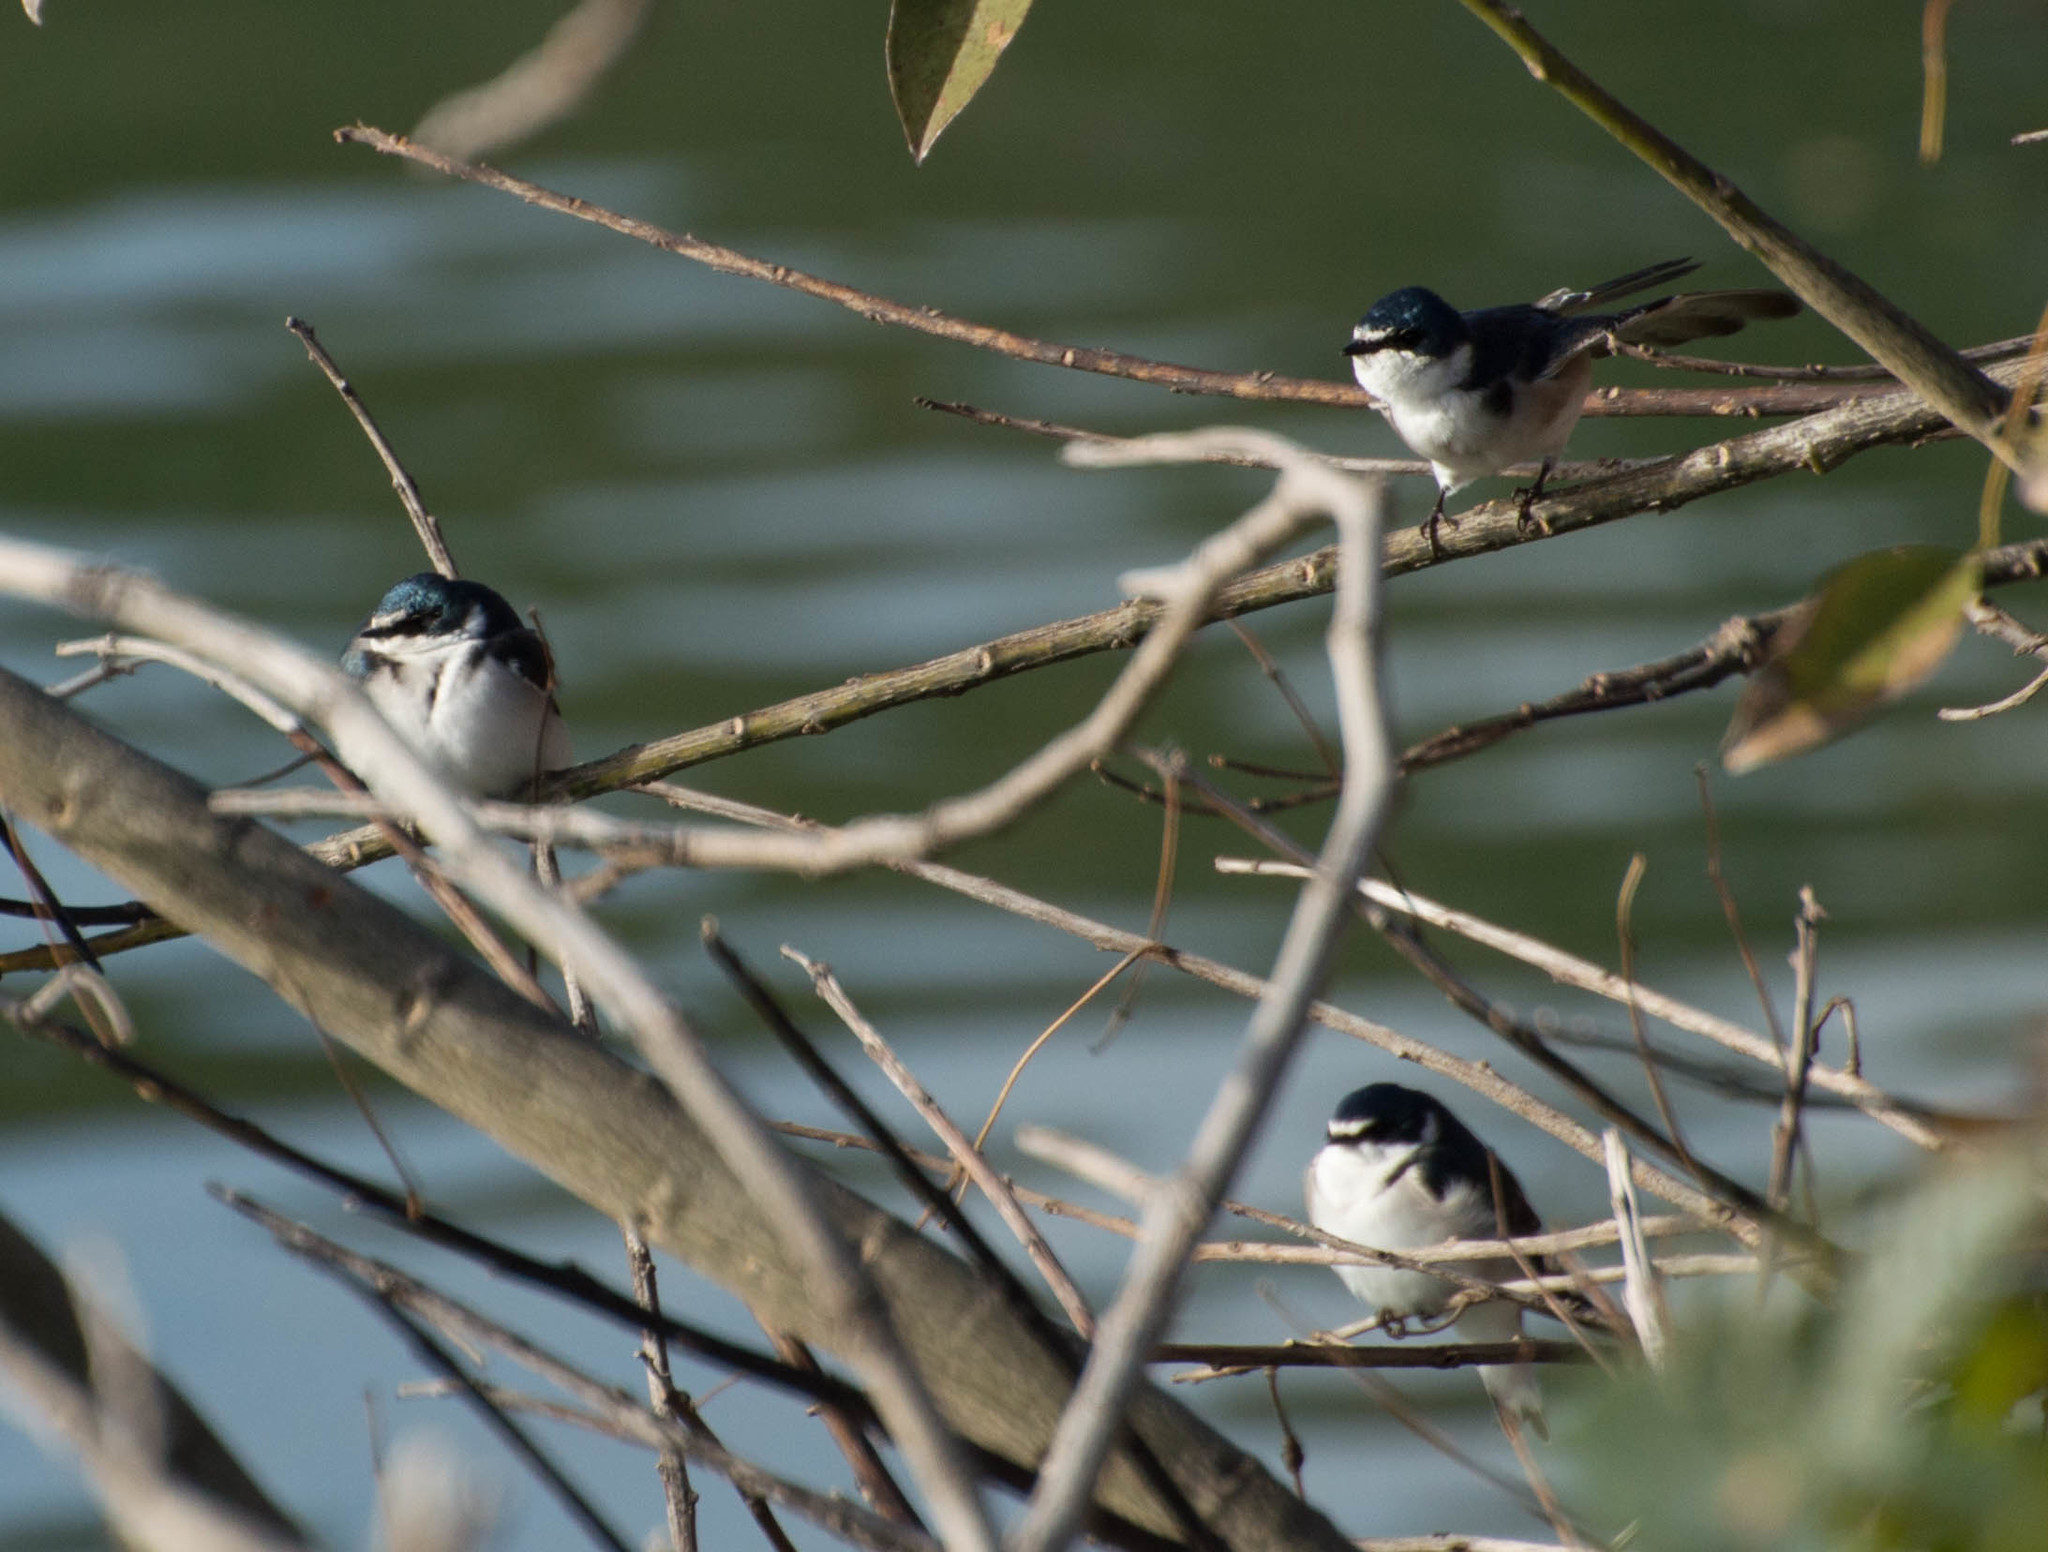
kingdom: Animalia
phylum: Chordata
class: Aves
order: Passeriformes
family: Hirundinidae
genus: Tachycineta
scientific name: Tachycineta leucorrhoa
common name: White-rumped swallow
